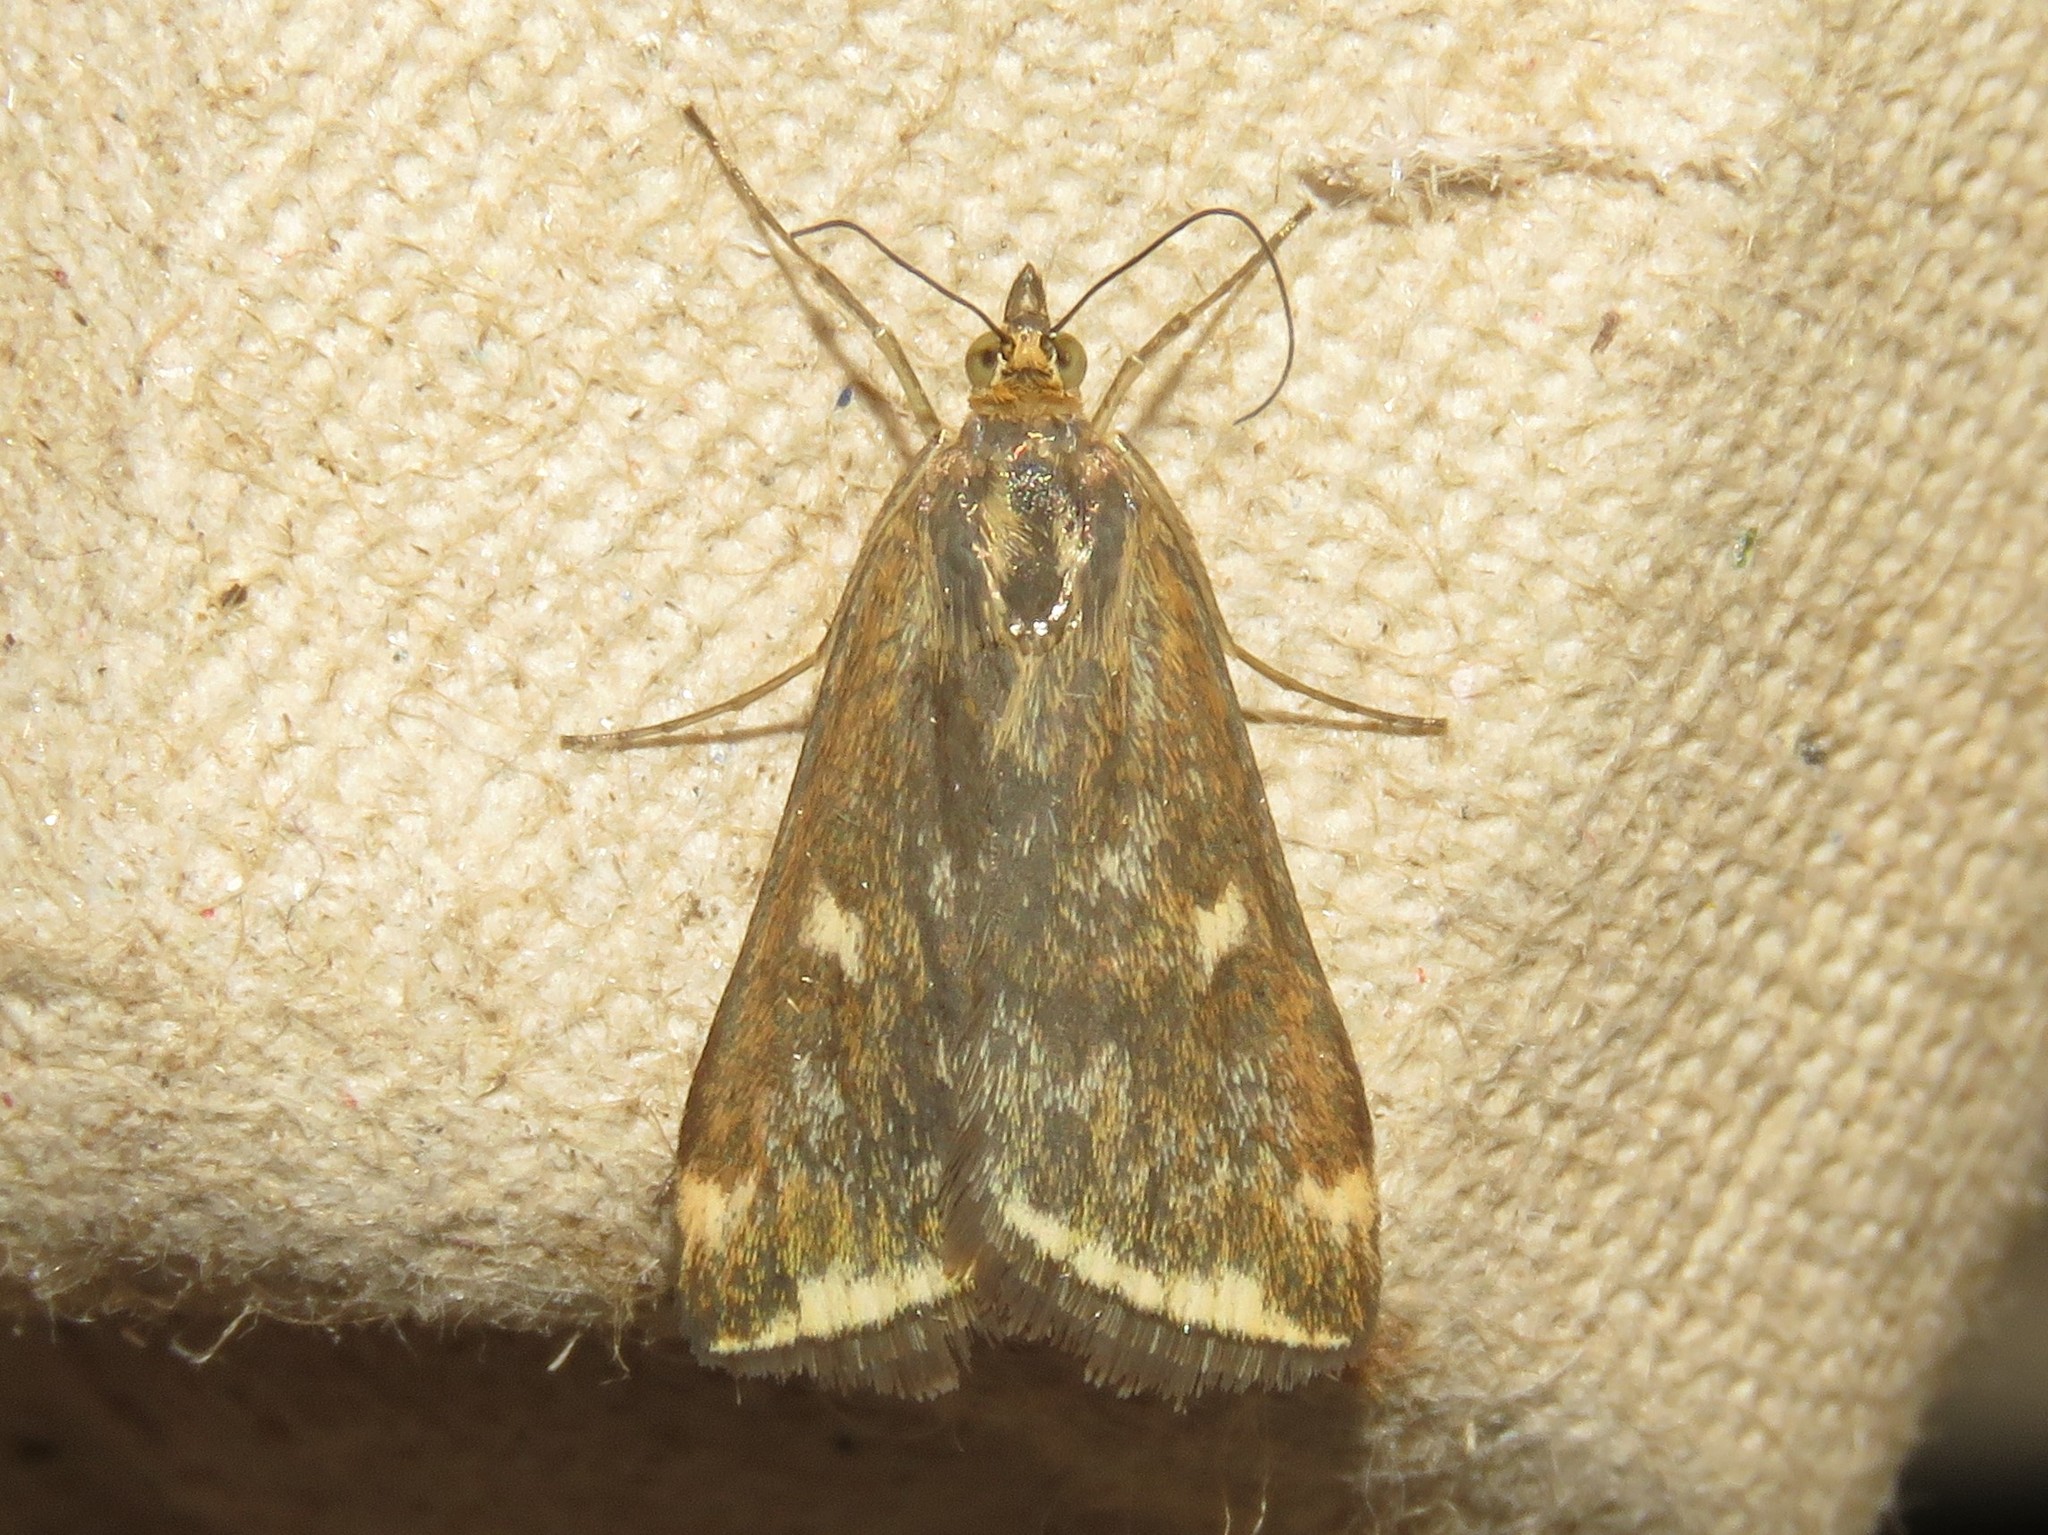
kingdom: Animalia
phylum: Arthropoda
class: Insecta
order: Lepidoptera
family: Crambidae
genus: Loxostege
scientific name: Loxostege
